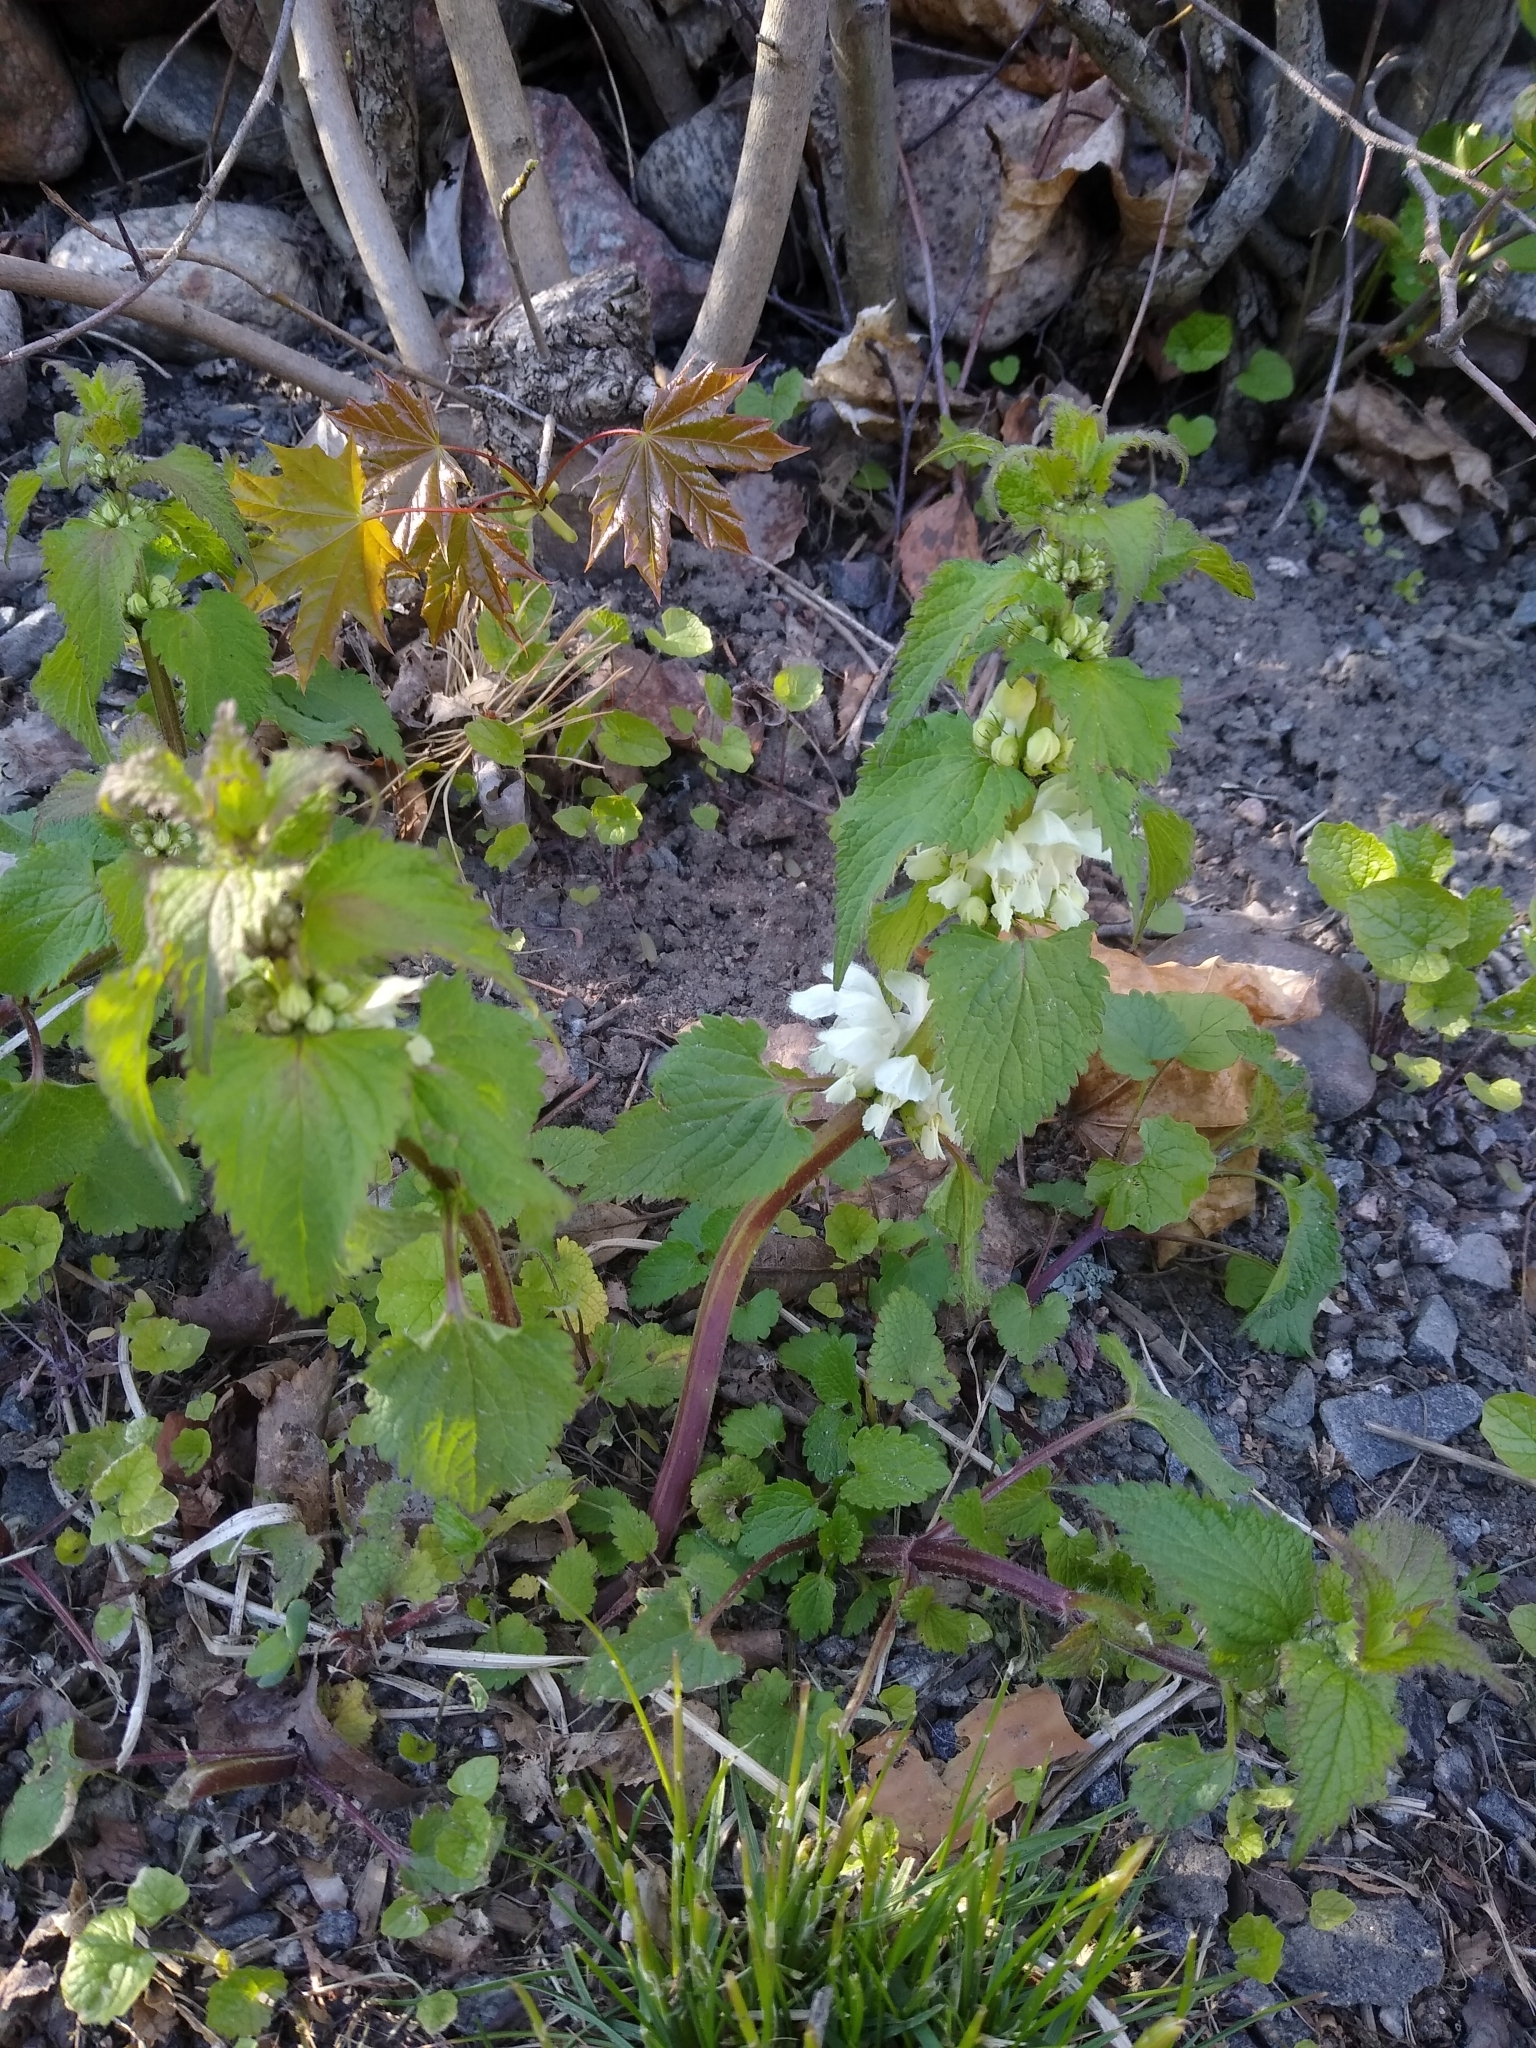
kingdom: Plantae
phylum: Tracheophyta
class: Magnoliopsida
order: Lamiales
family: Lamiaceae
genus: Lamium
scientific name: Lamium album
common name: White dead-nettle
